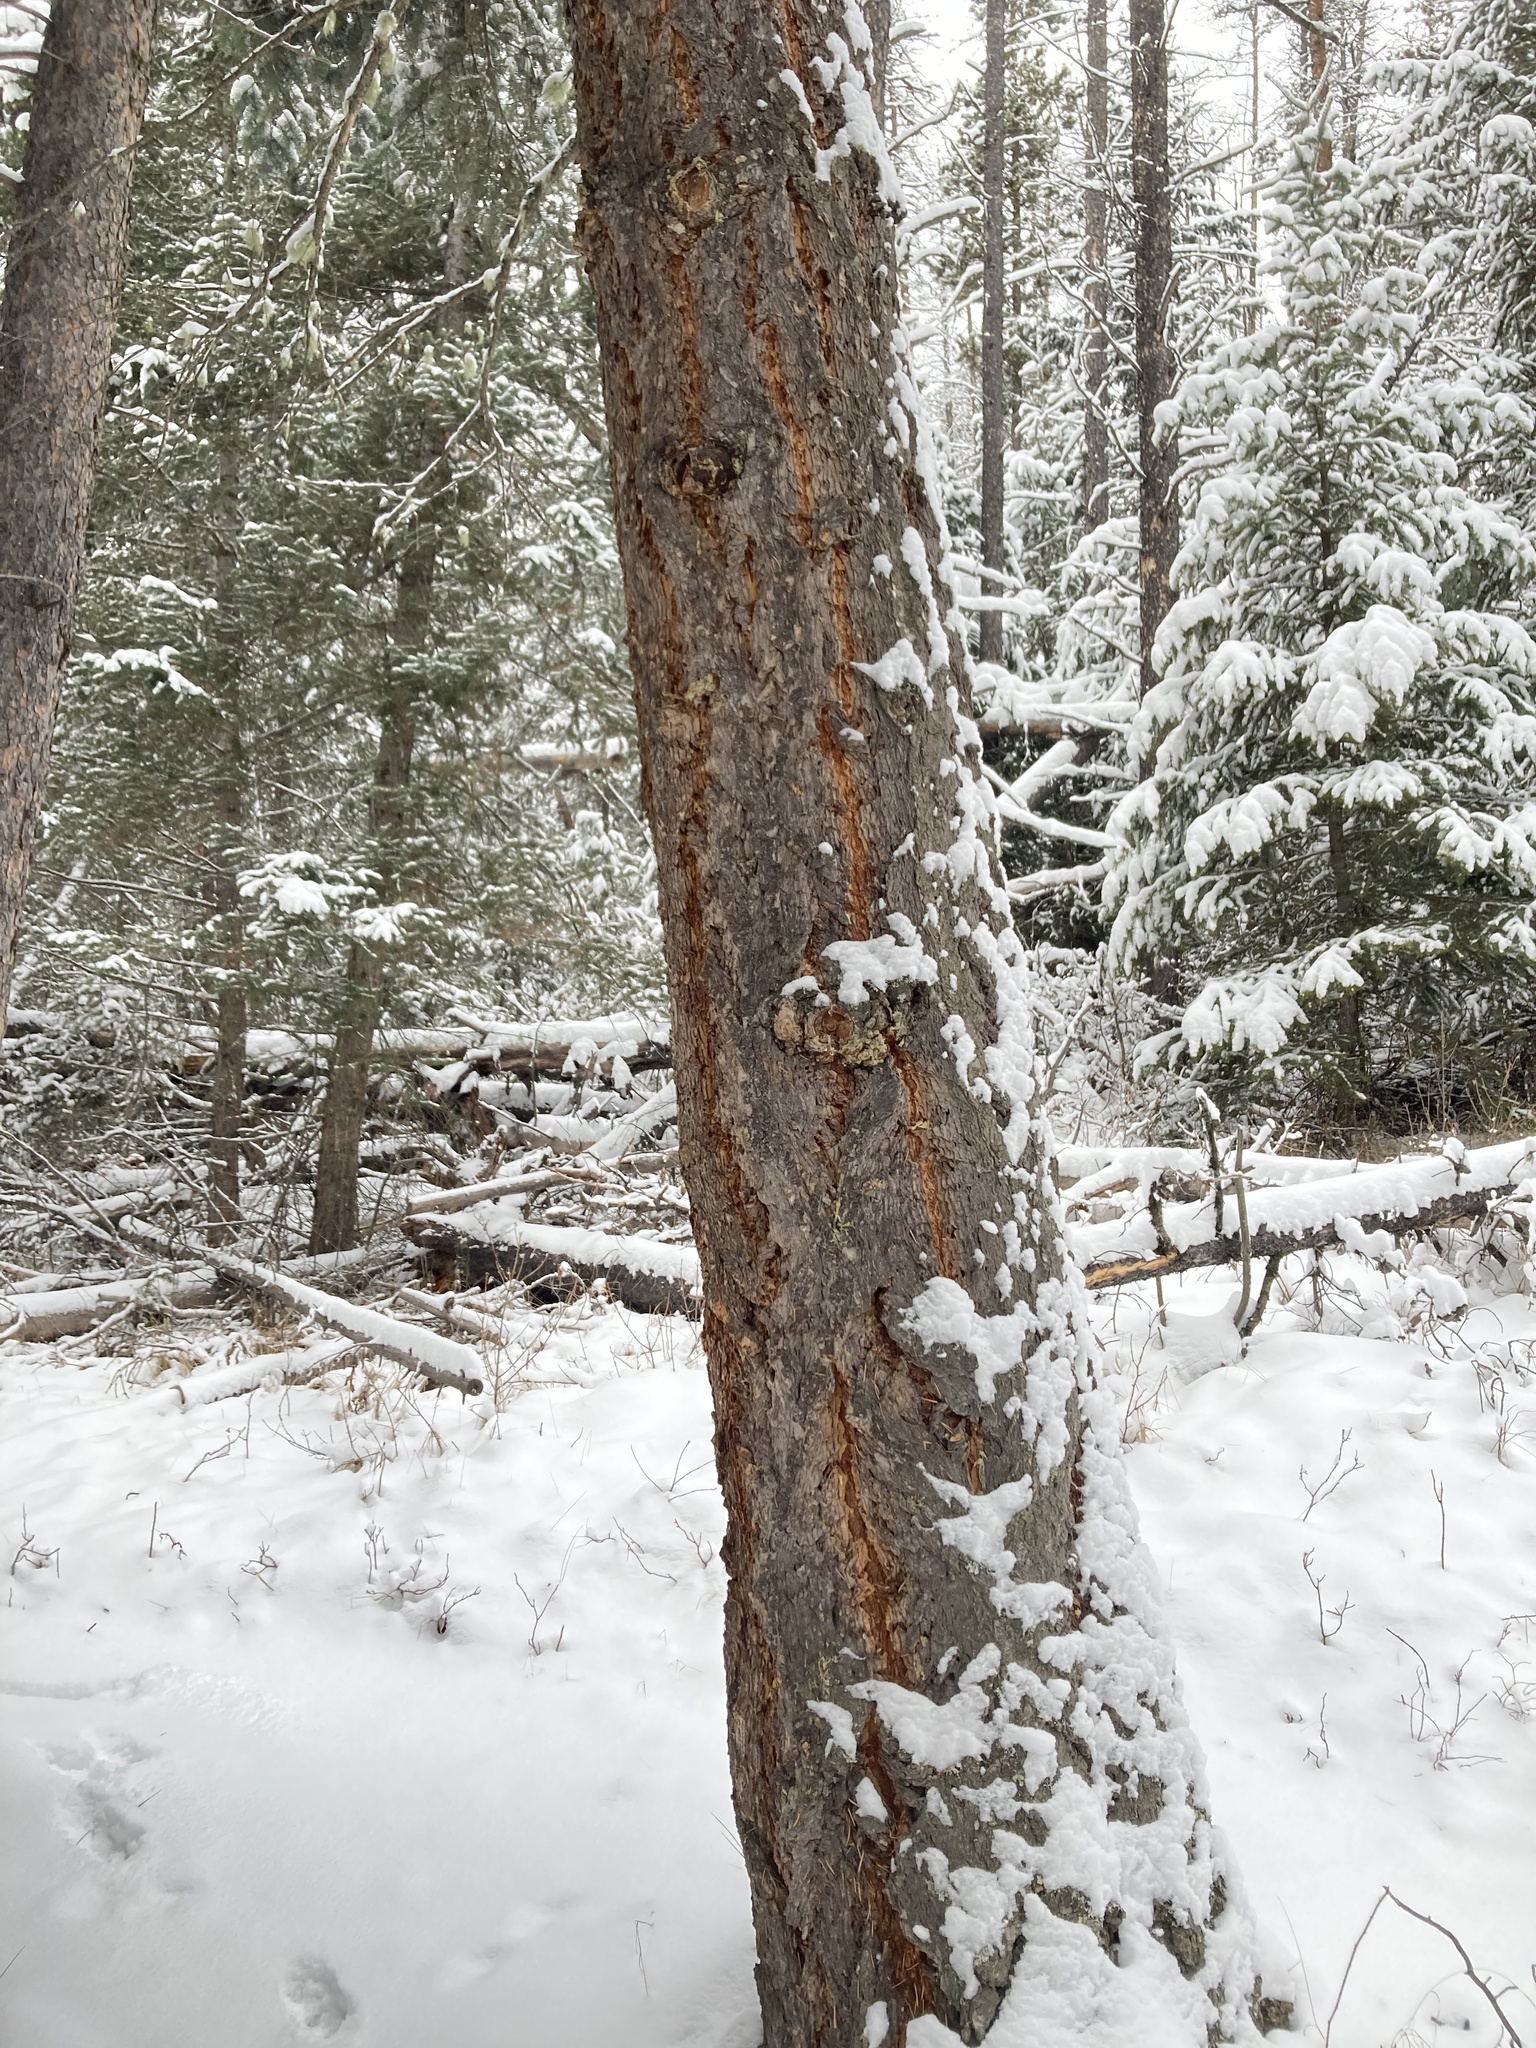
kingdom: Plantae
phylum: Tracheophyta
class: Pinopsida
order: Pinales
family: Pinaceae
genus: Pseudotsuga
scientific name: Pseudotsuga menziesii
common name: Douglas fir
